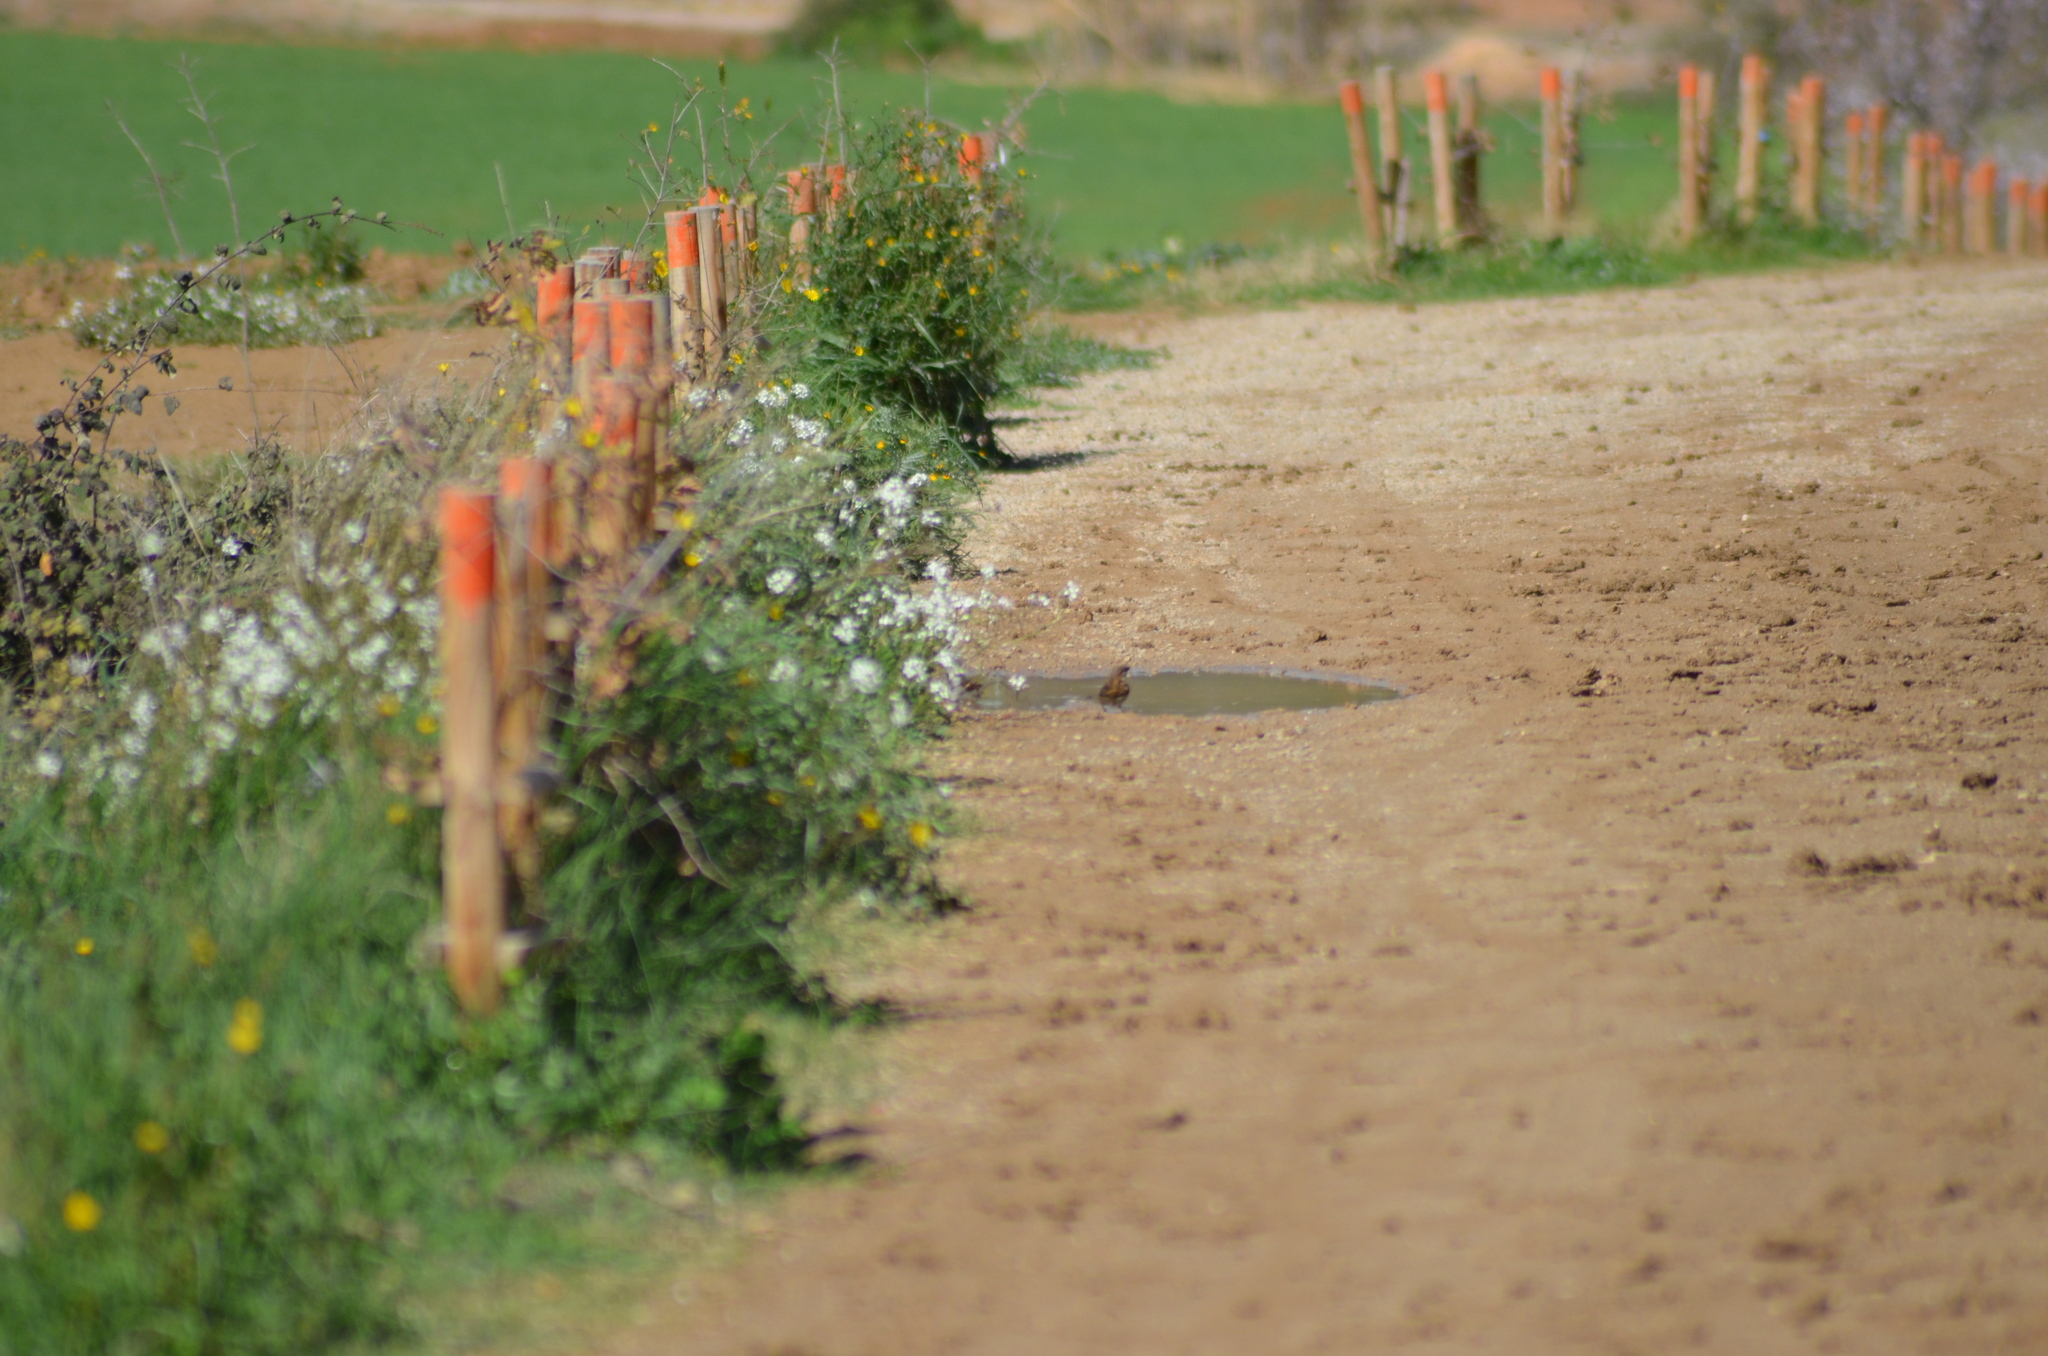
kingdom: Animalia
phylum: Chordata
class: Aves
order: Passeriformes
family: Passeridae
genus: Passer
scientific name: Passer domesticus
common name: House sparrow
